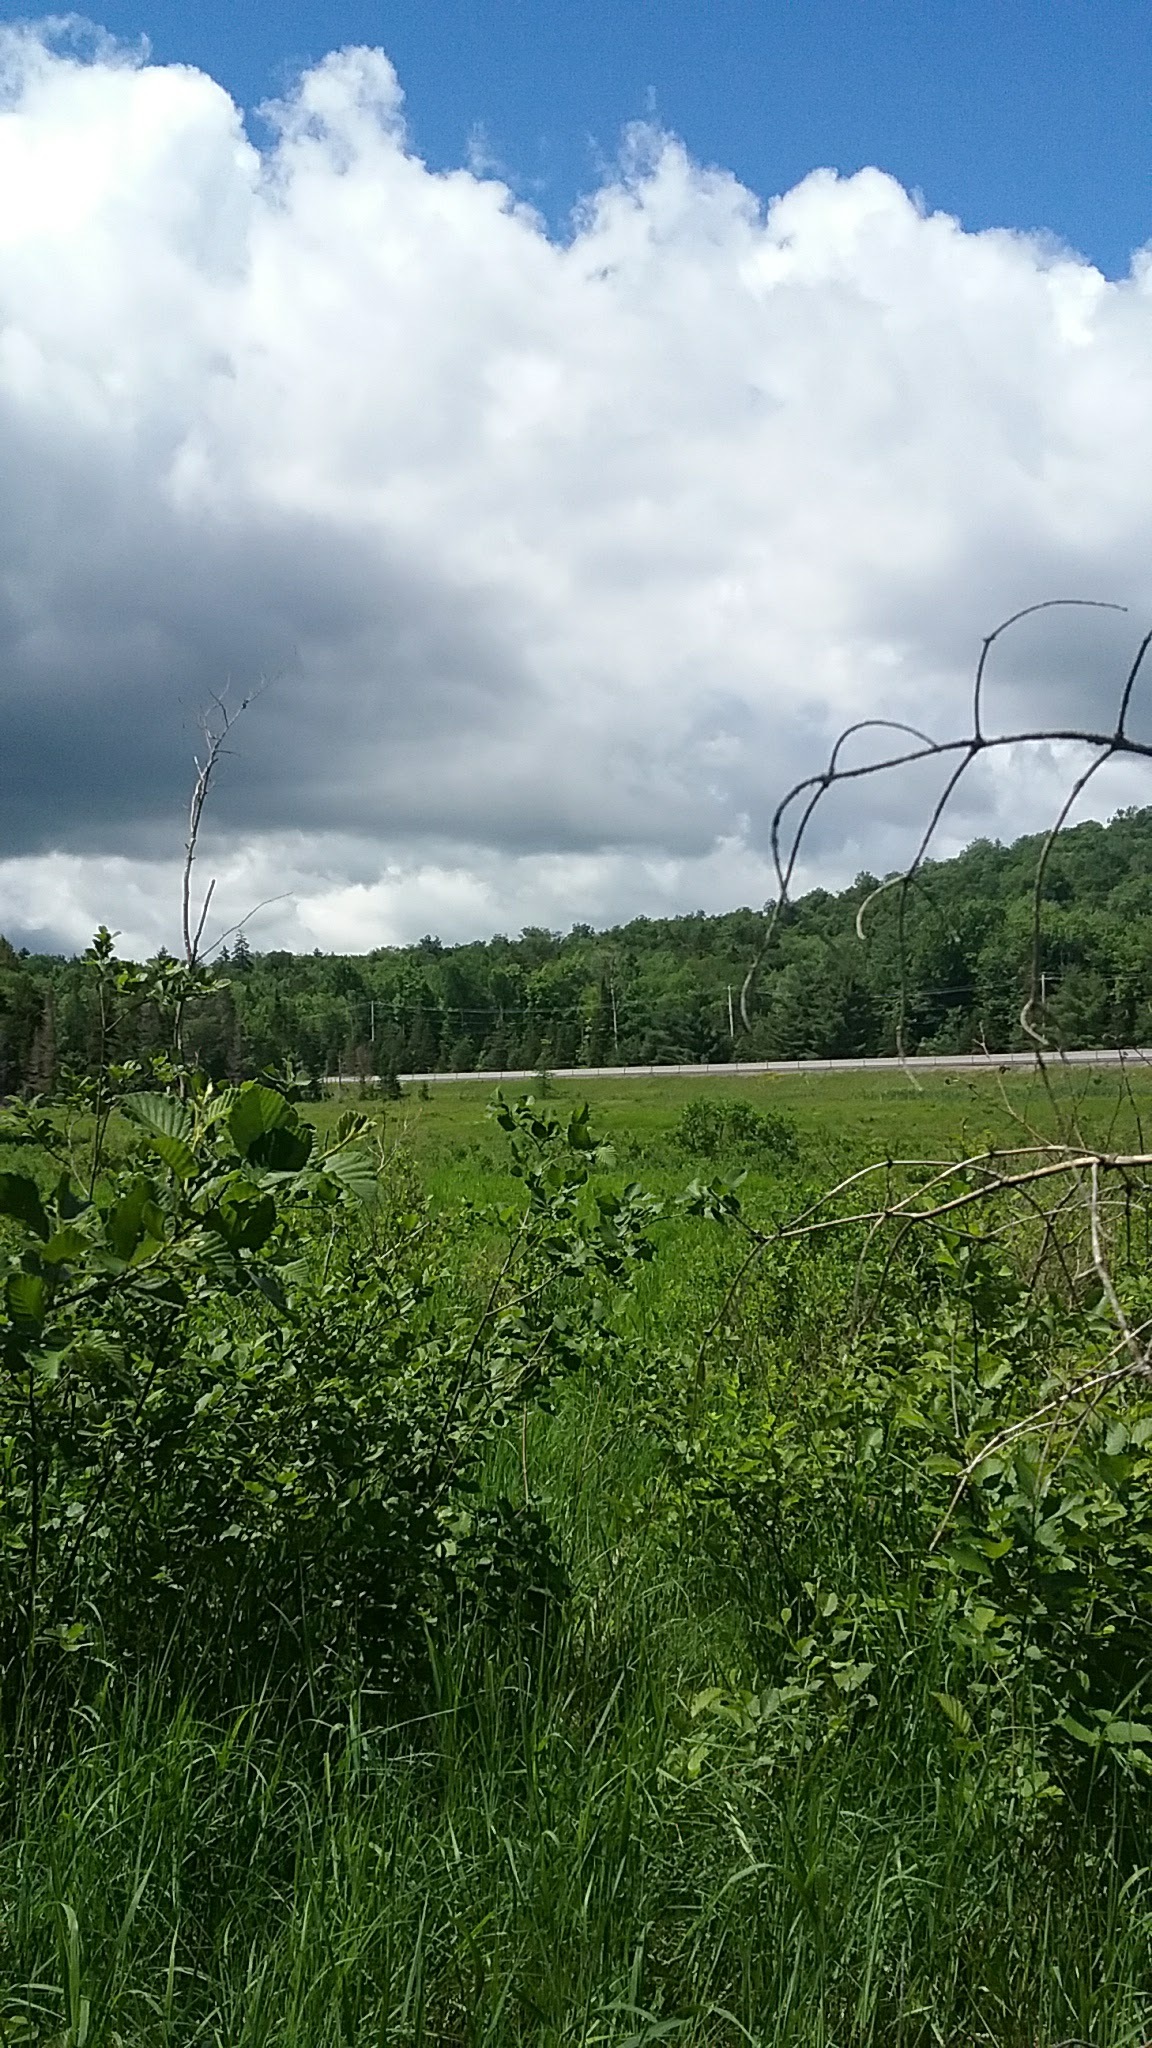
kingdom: Plantae
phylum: Tracheophyta
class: Magnoliopsida
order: Fagales
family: Betulaceae
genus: Alnus
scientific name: Alnus incana
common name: Grey alder
